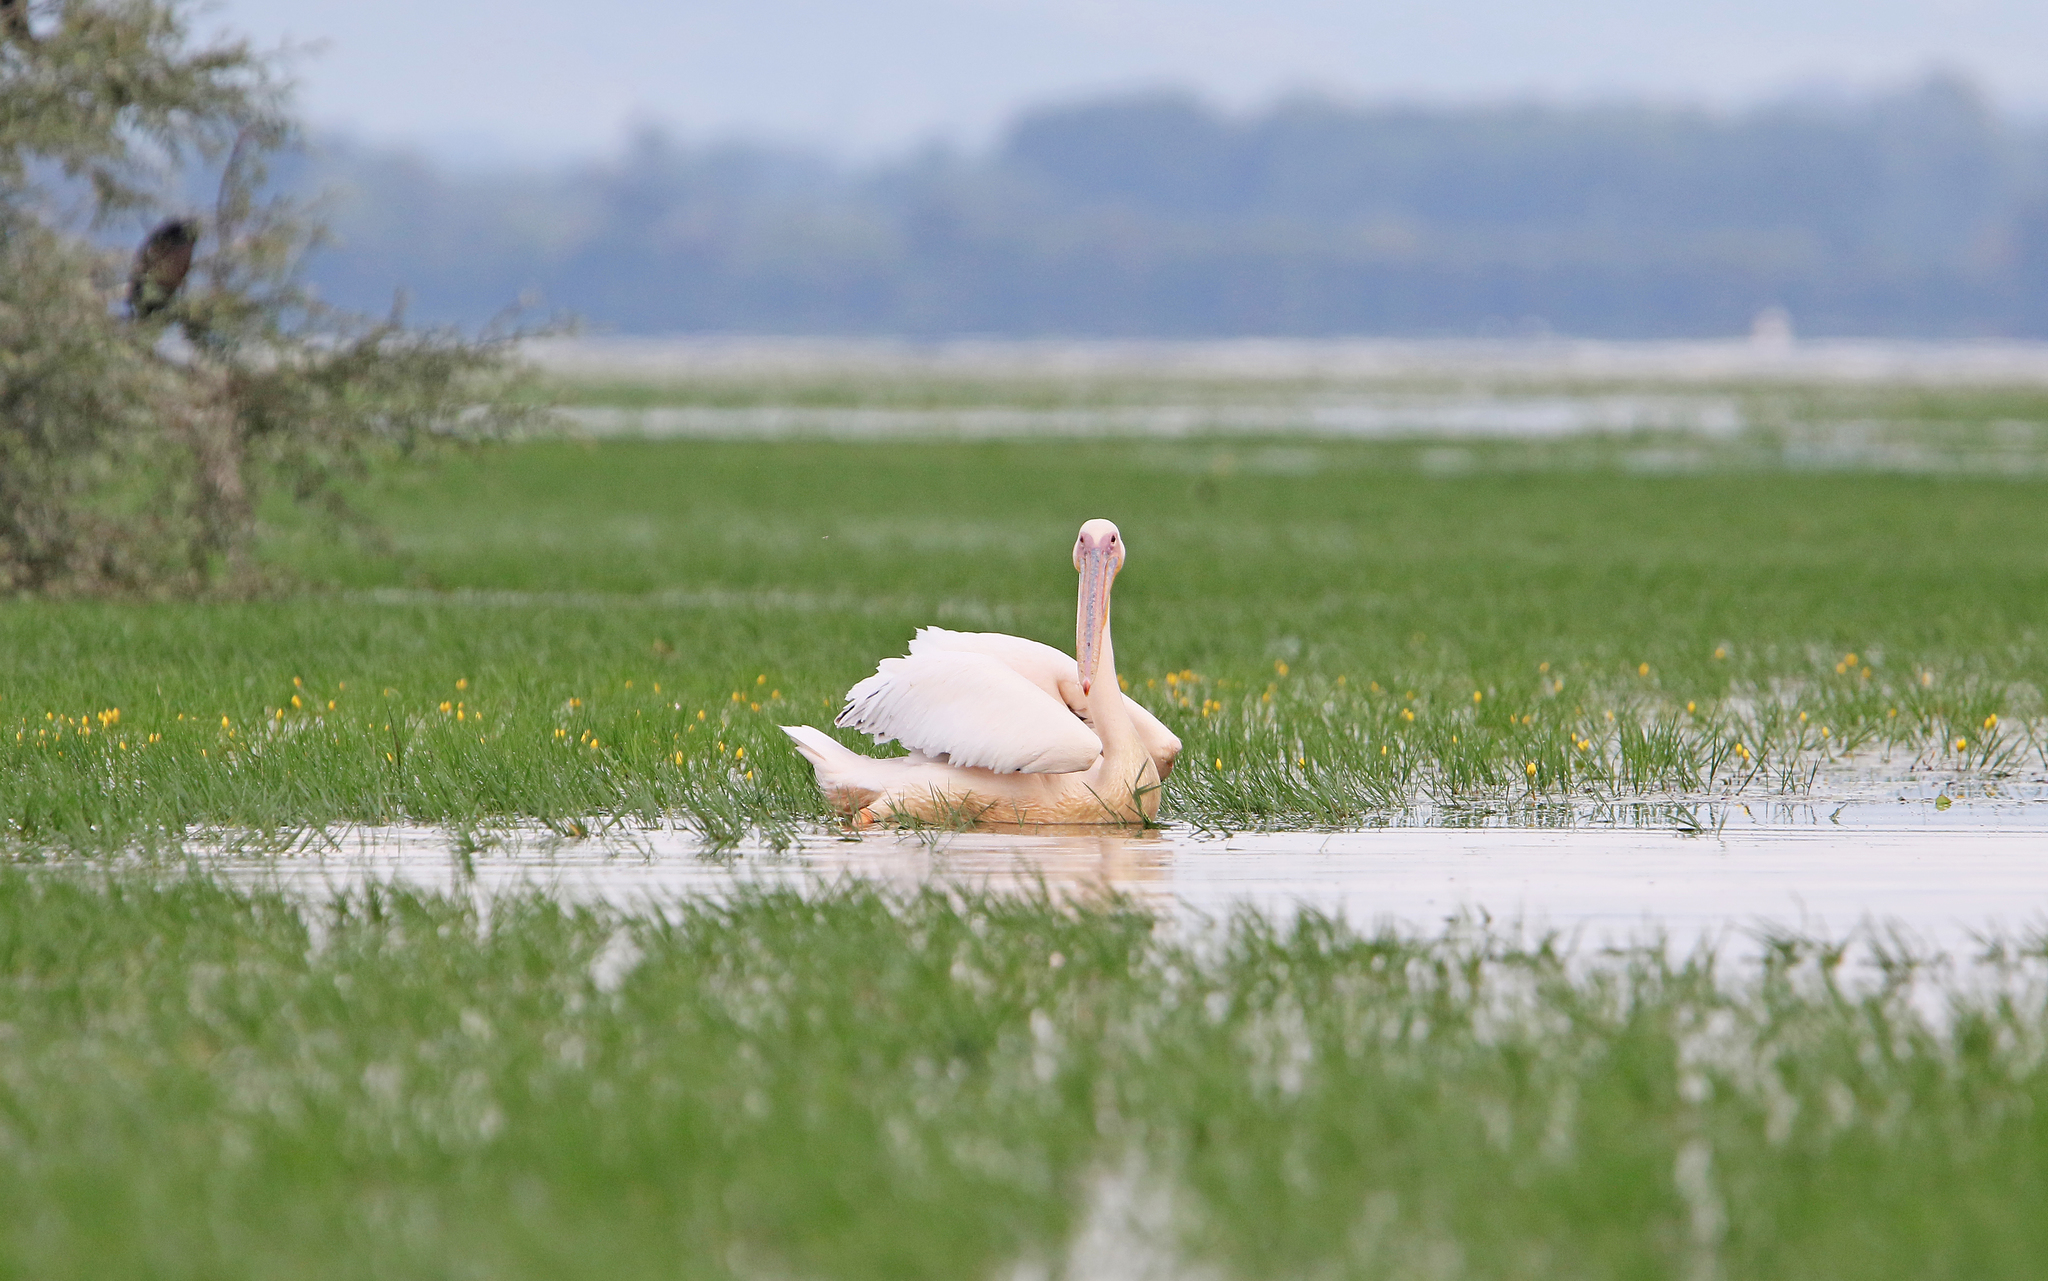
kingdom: Animalia
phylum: Chordata
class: Aves
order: Pelecaniformes
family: Pelecanidae
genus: Pelecanus
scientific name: Pelecanus onocrotalus
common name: Great white pelican
